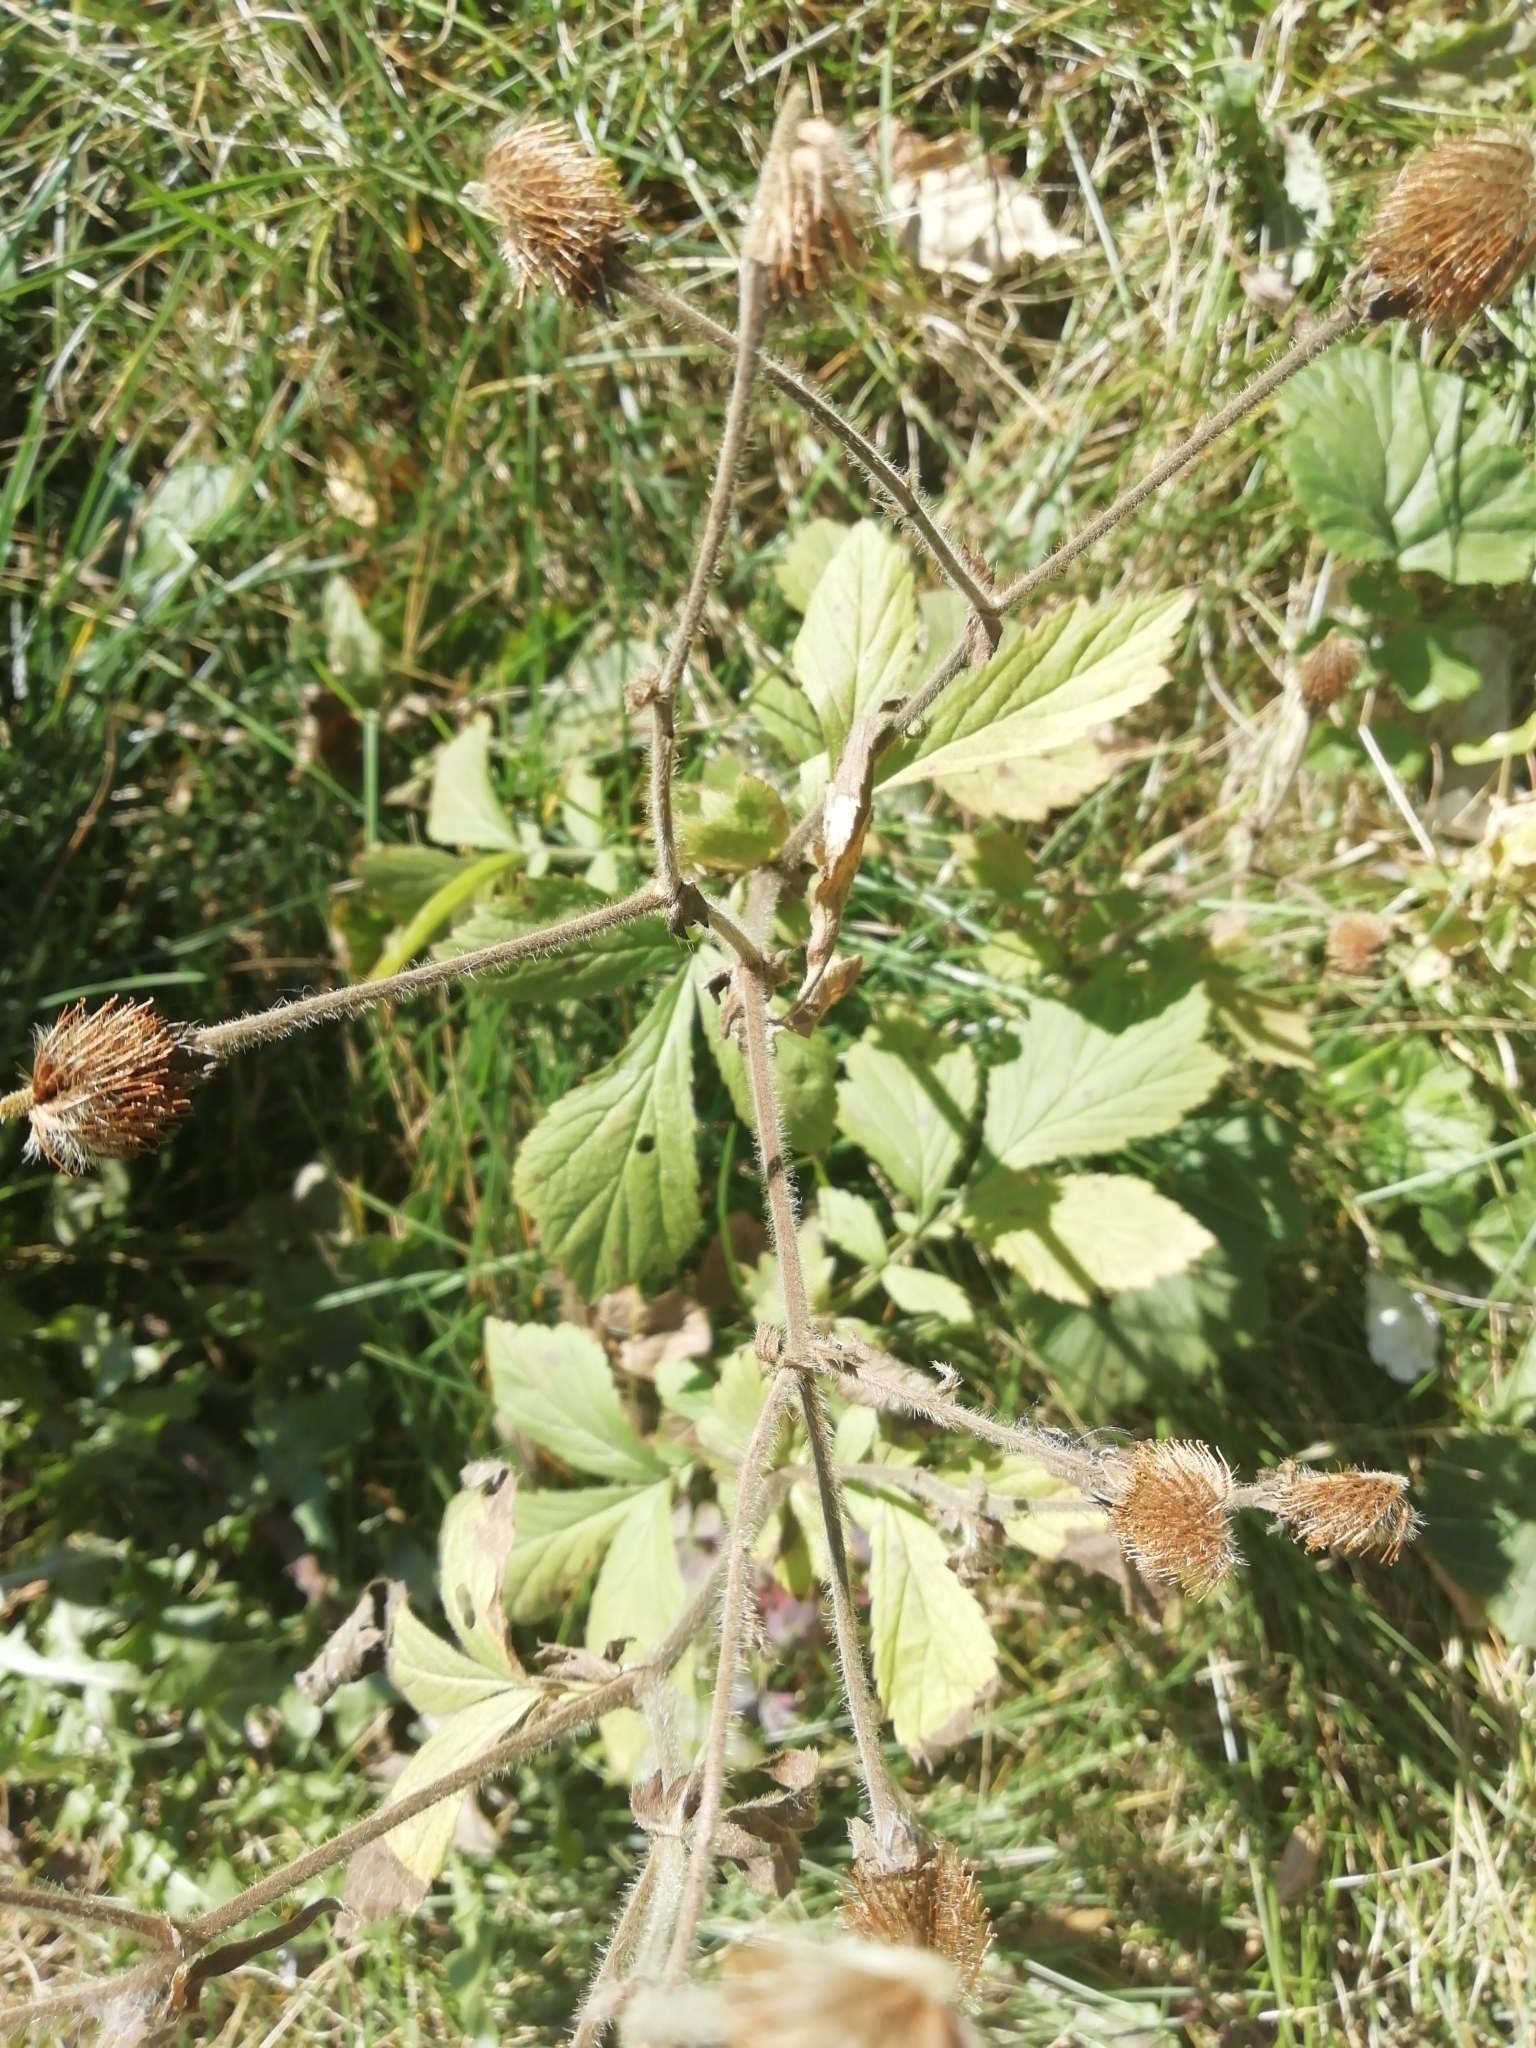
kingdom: Plantae
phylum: Tracheophyta
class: Magnoliopsida
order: Rosales
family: Rosaceae
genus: Geum
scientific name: Geum aleppicum
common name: Yellow avens
